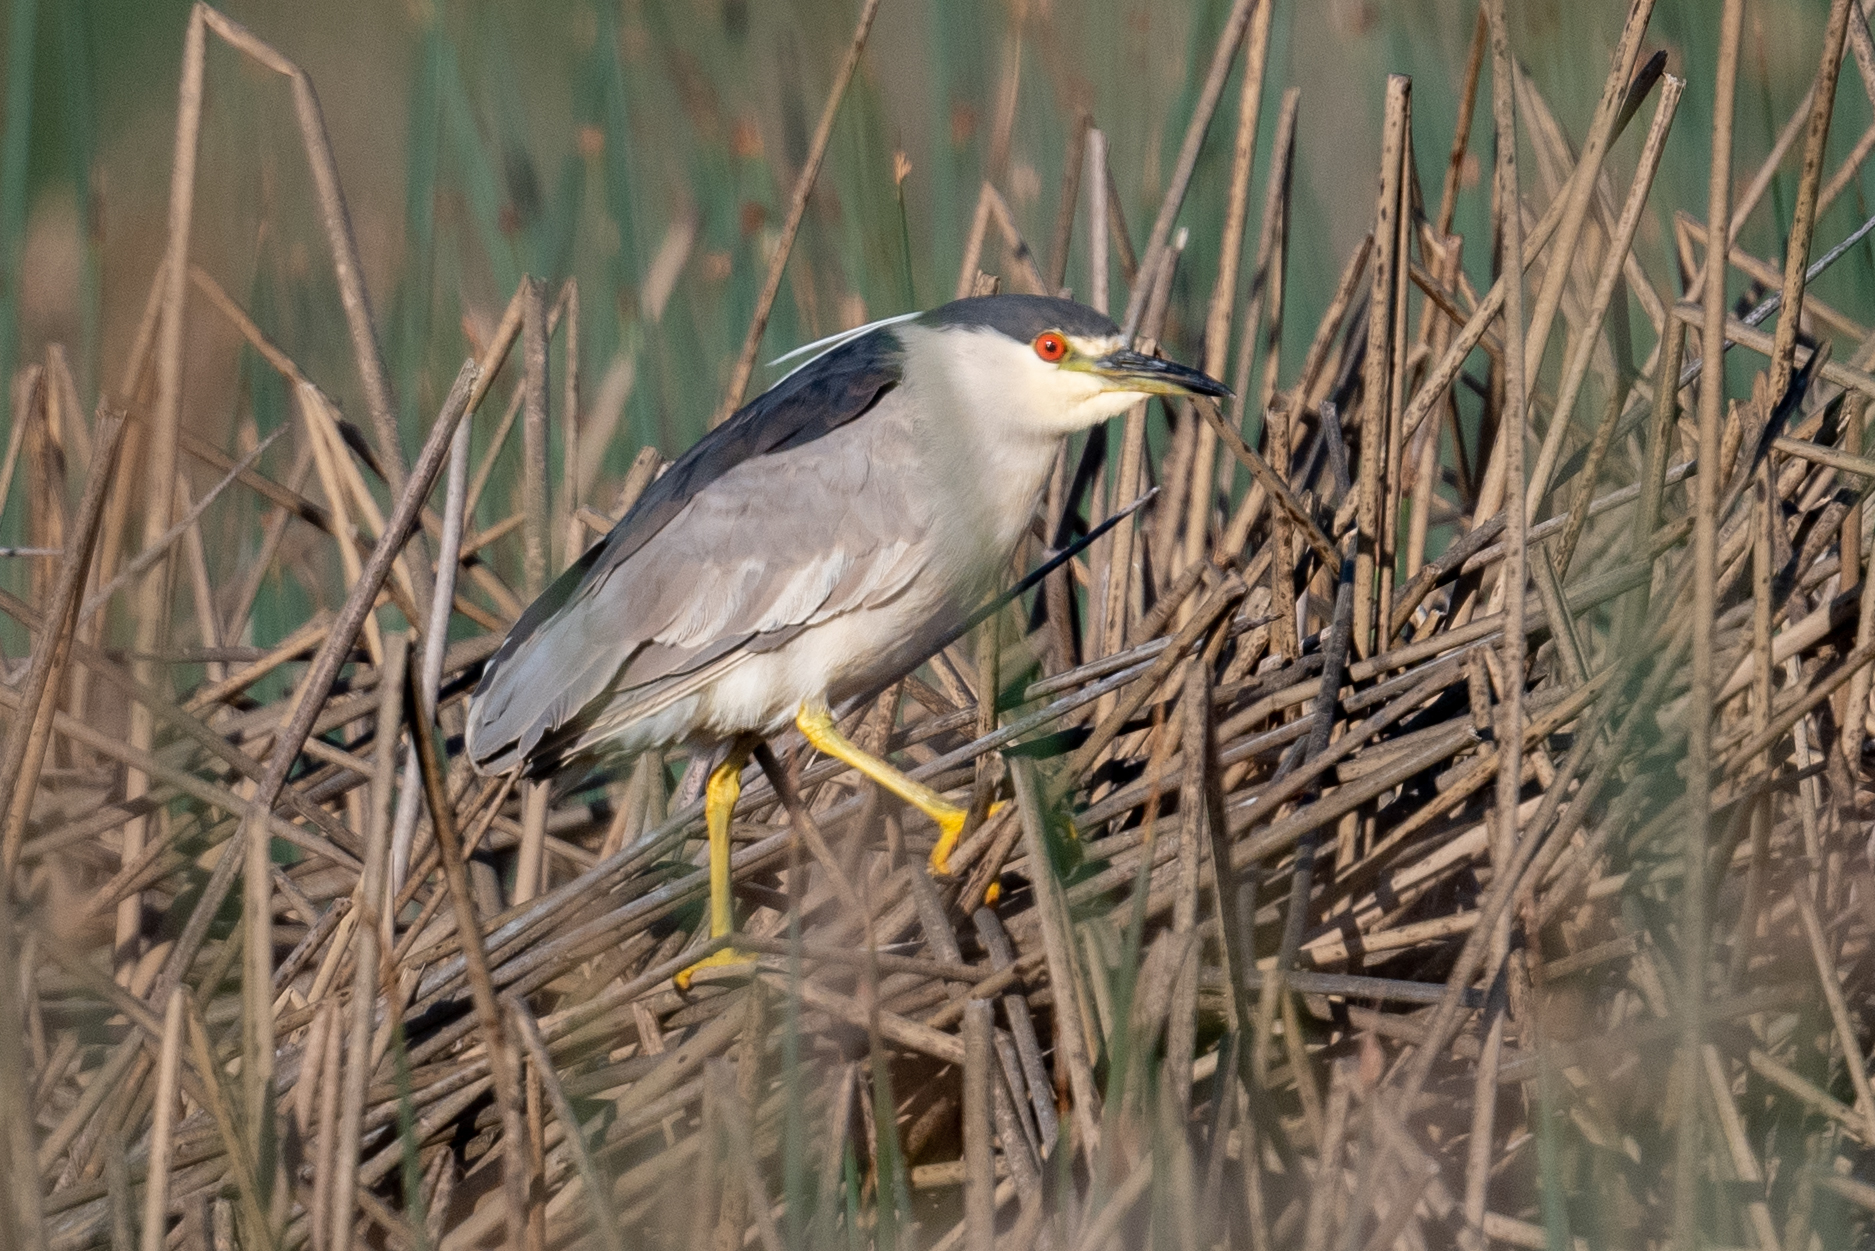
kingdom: Animalia
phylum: Chordata
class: Aves
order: Pelecaniformes
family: Ardeidae
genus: Nycticorax
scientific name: Nycticorax nycticorax
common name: Black-crowned night heron
